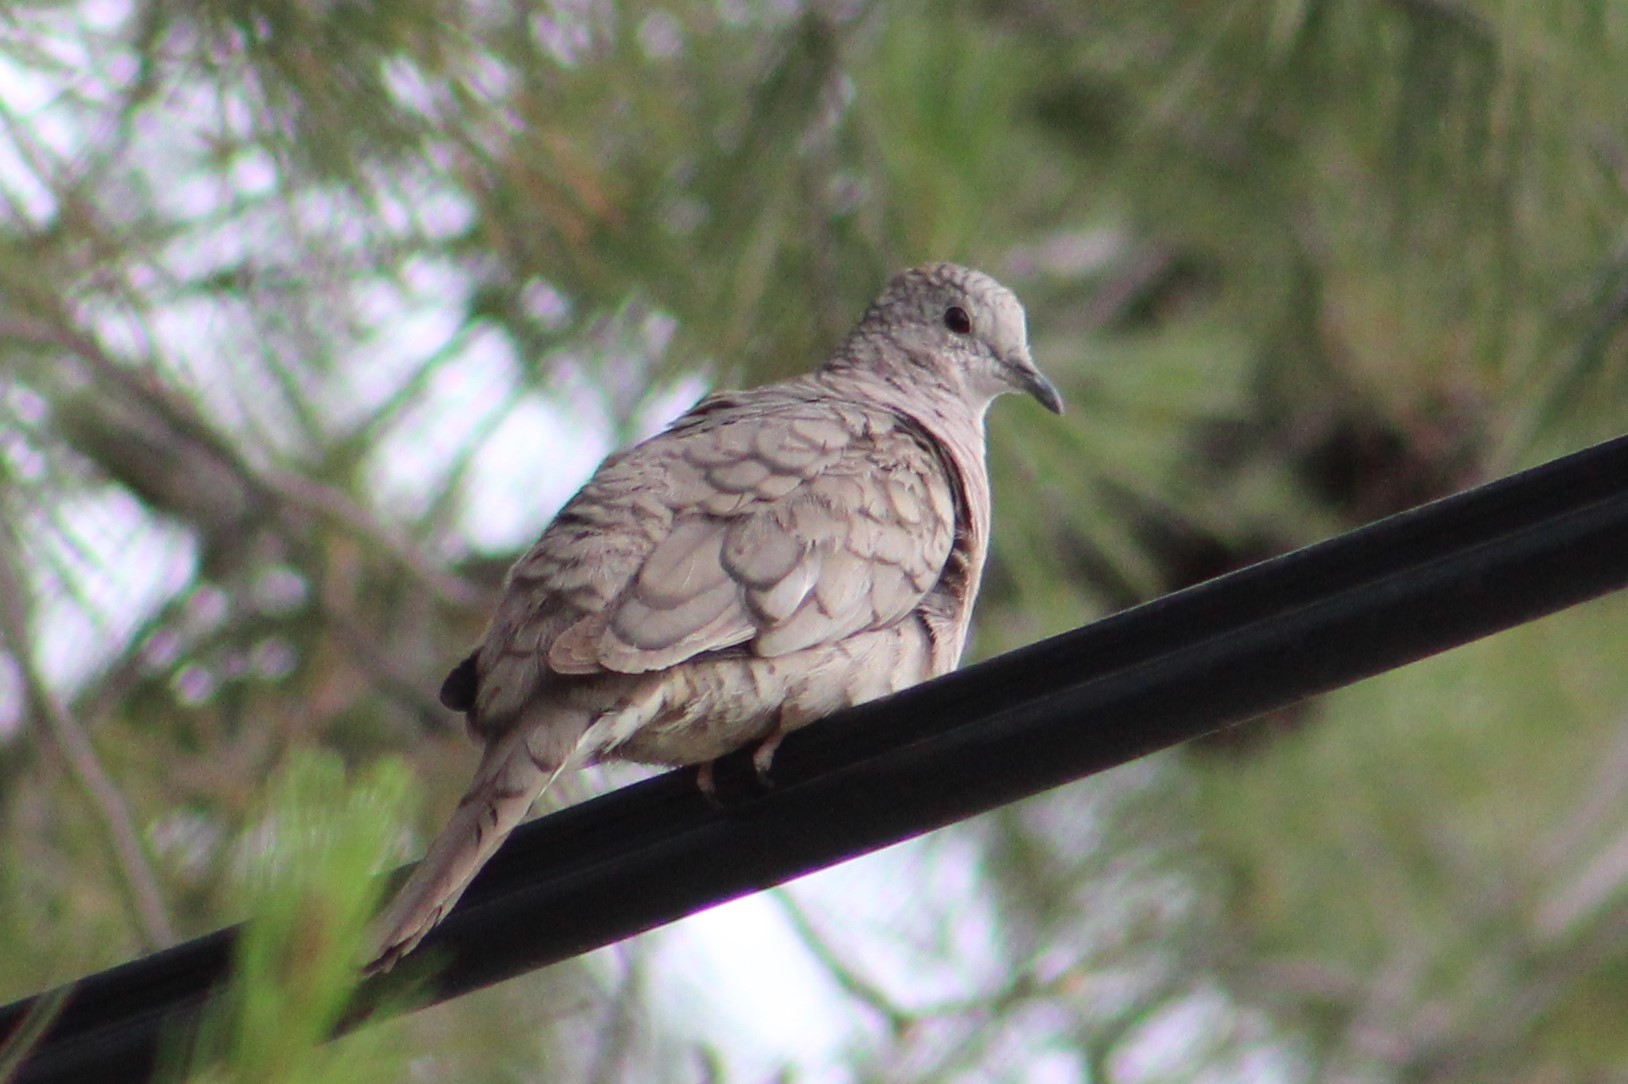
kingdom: Animalia
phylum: Chordata
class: Aves
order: Columbiformes
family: Columbidae
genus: Columbina
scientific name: Columbina inca
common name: Inca dove
